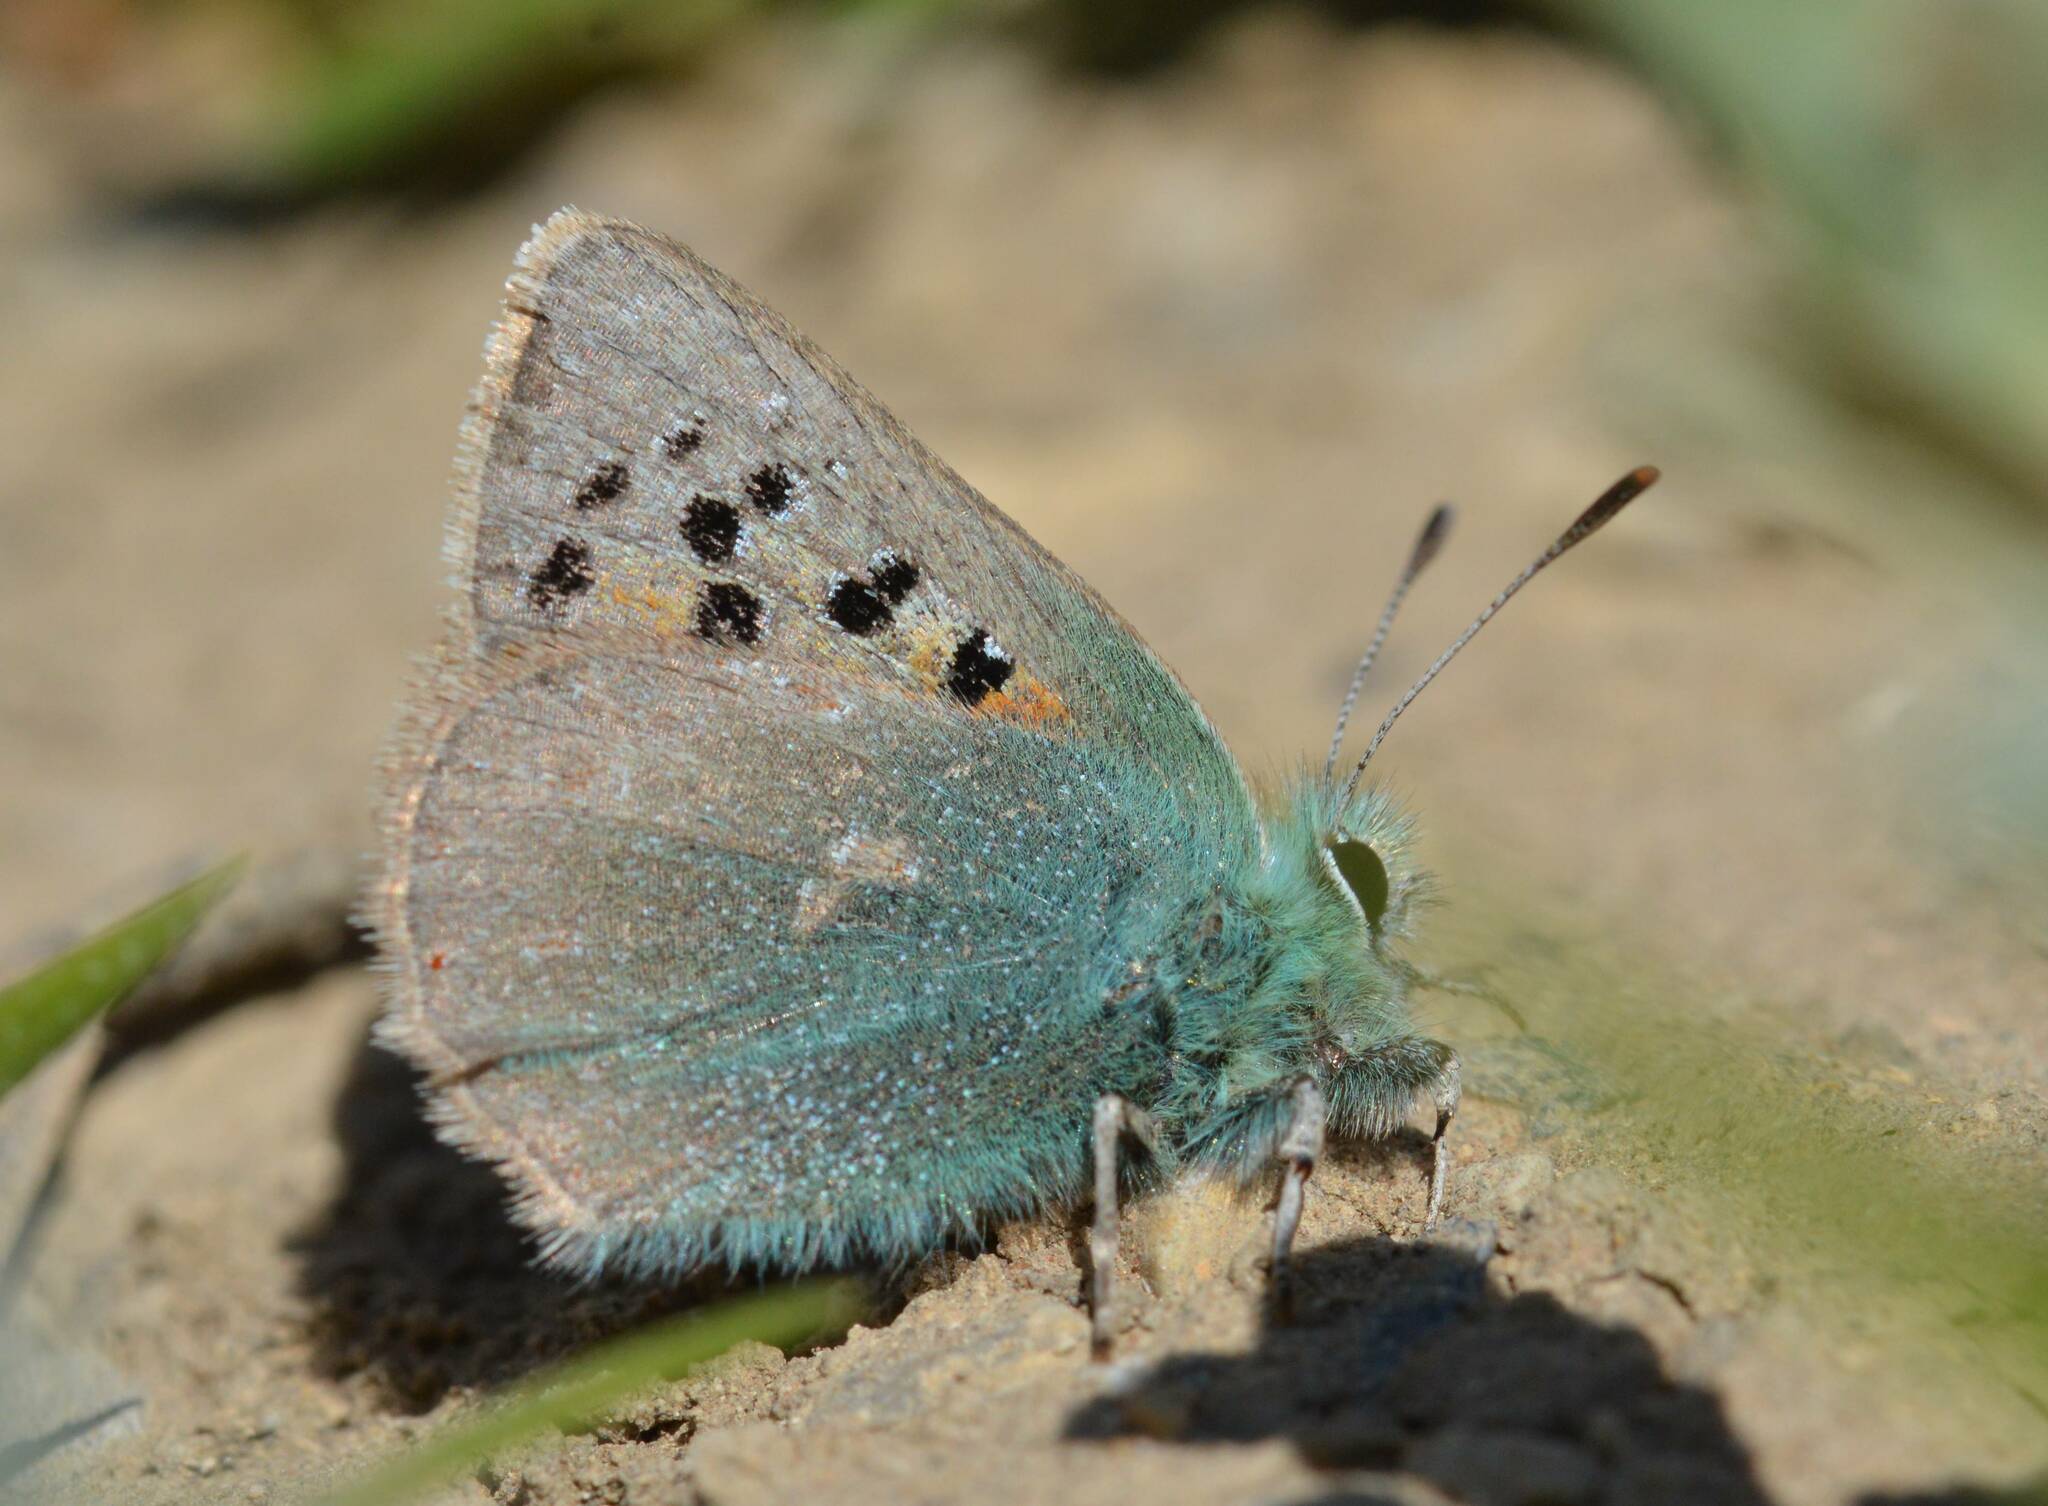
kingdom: Animalia
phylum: Arthropoda
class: Insecta
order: Lepidoptera
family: Lycaenidae
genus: Tomares
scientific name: Tomares ballus
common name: Provence hairstreak
